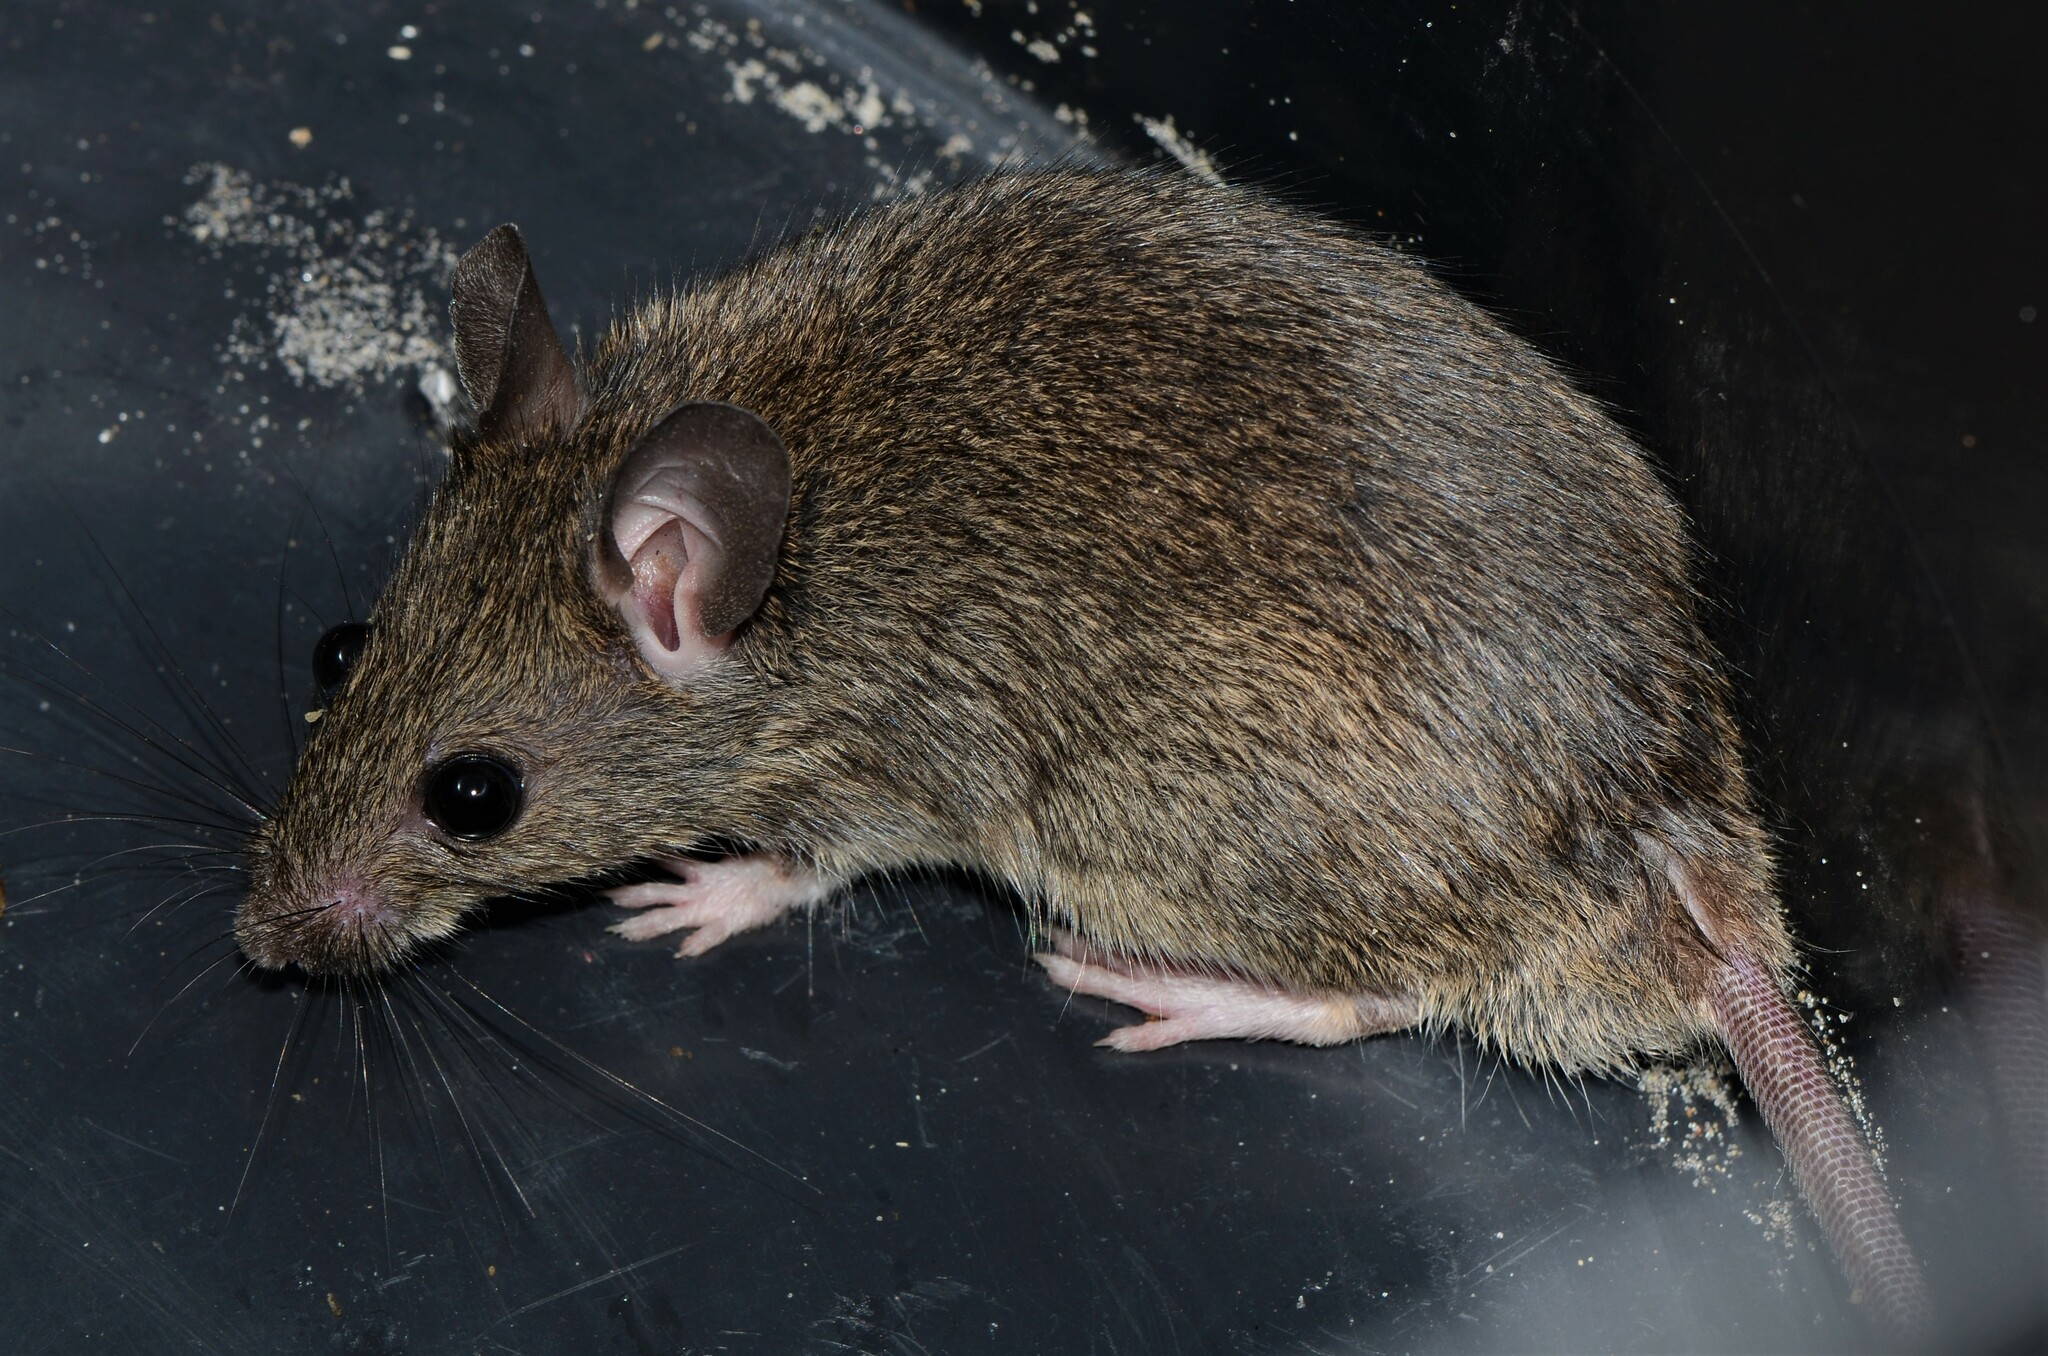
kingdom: Animalia
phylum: Chordata
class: Mammalia
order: Rodentia
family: Muridae
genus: Mastomys
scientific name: Mastomys natalensis
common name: Natal mastomys
